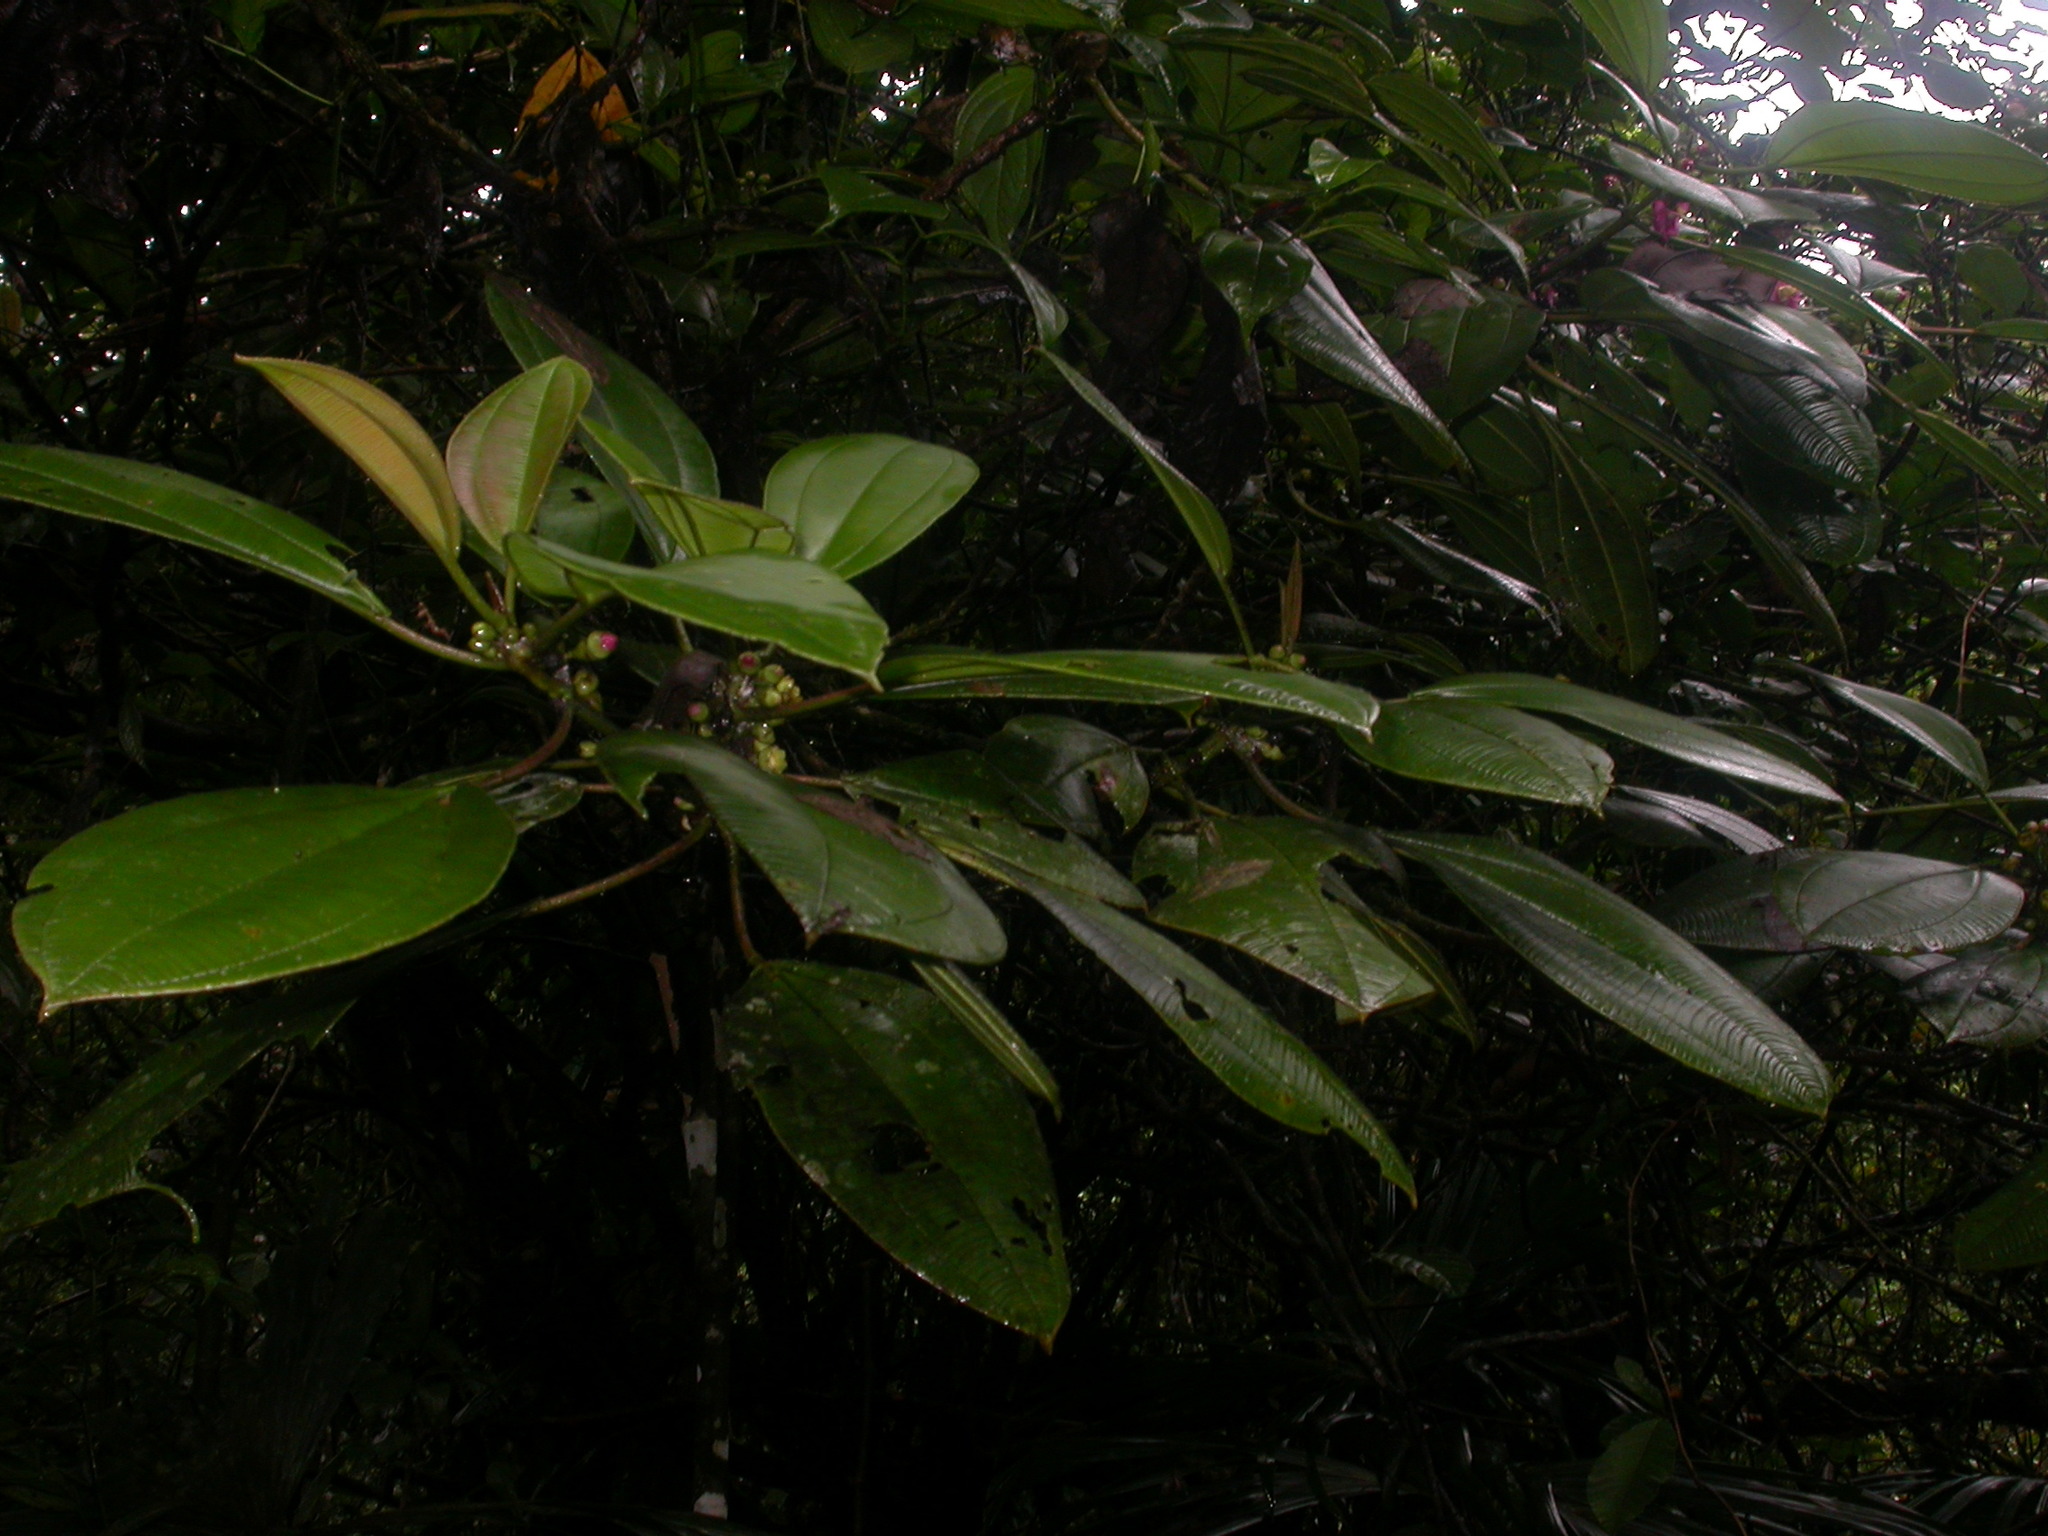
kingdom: Plantae
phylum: Tracheophyta
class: Magnoliopsida
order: Myrtales
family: Melastomataceae
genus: Blakea
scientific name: Blakea maurofernandeziana
